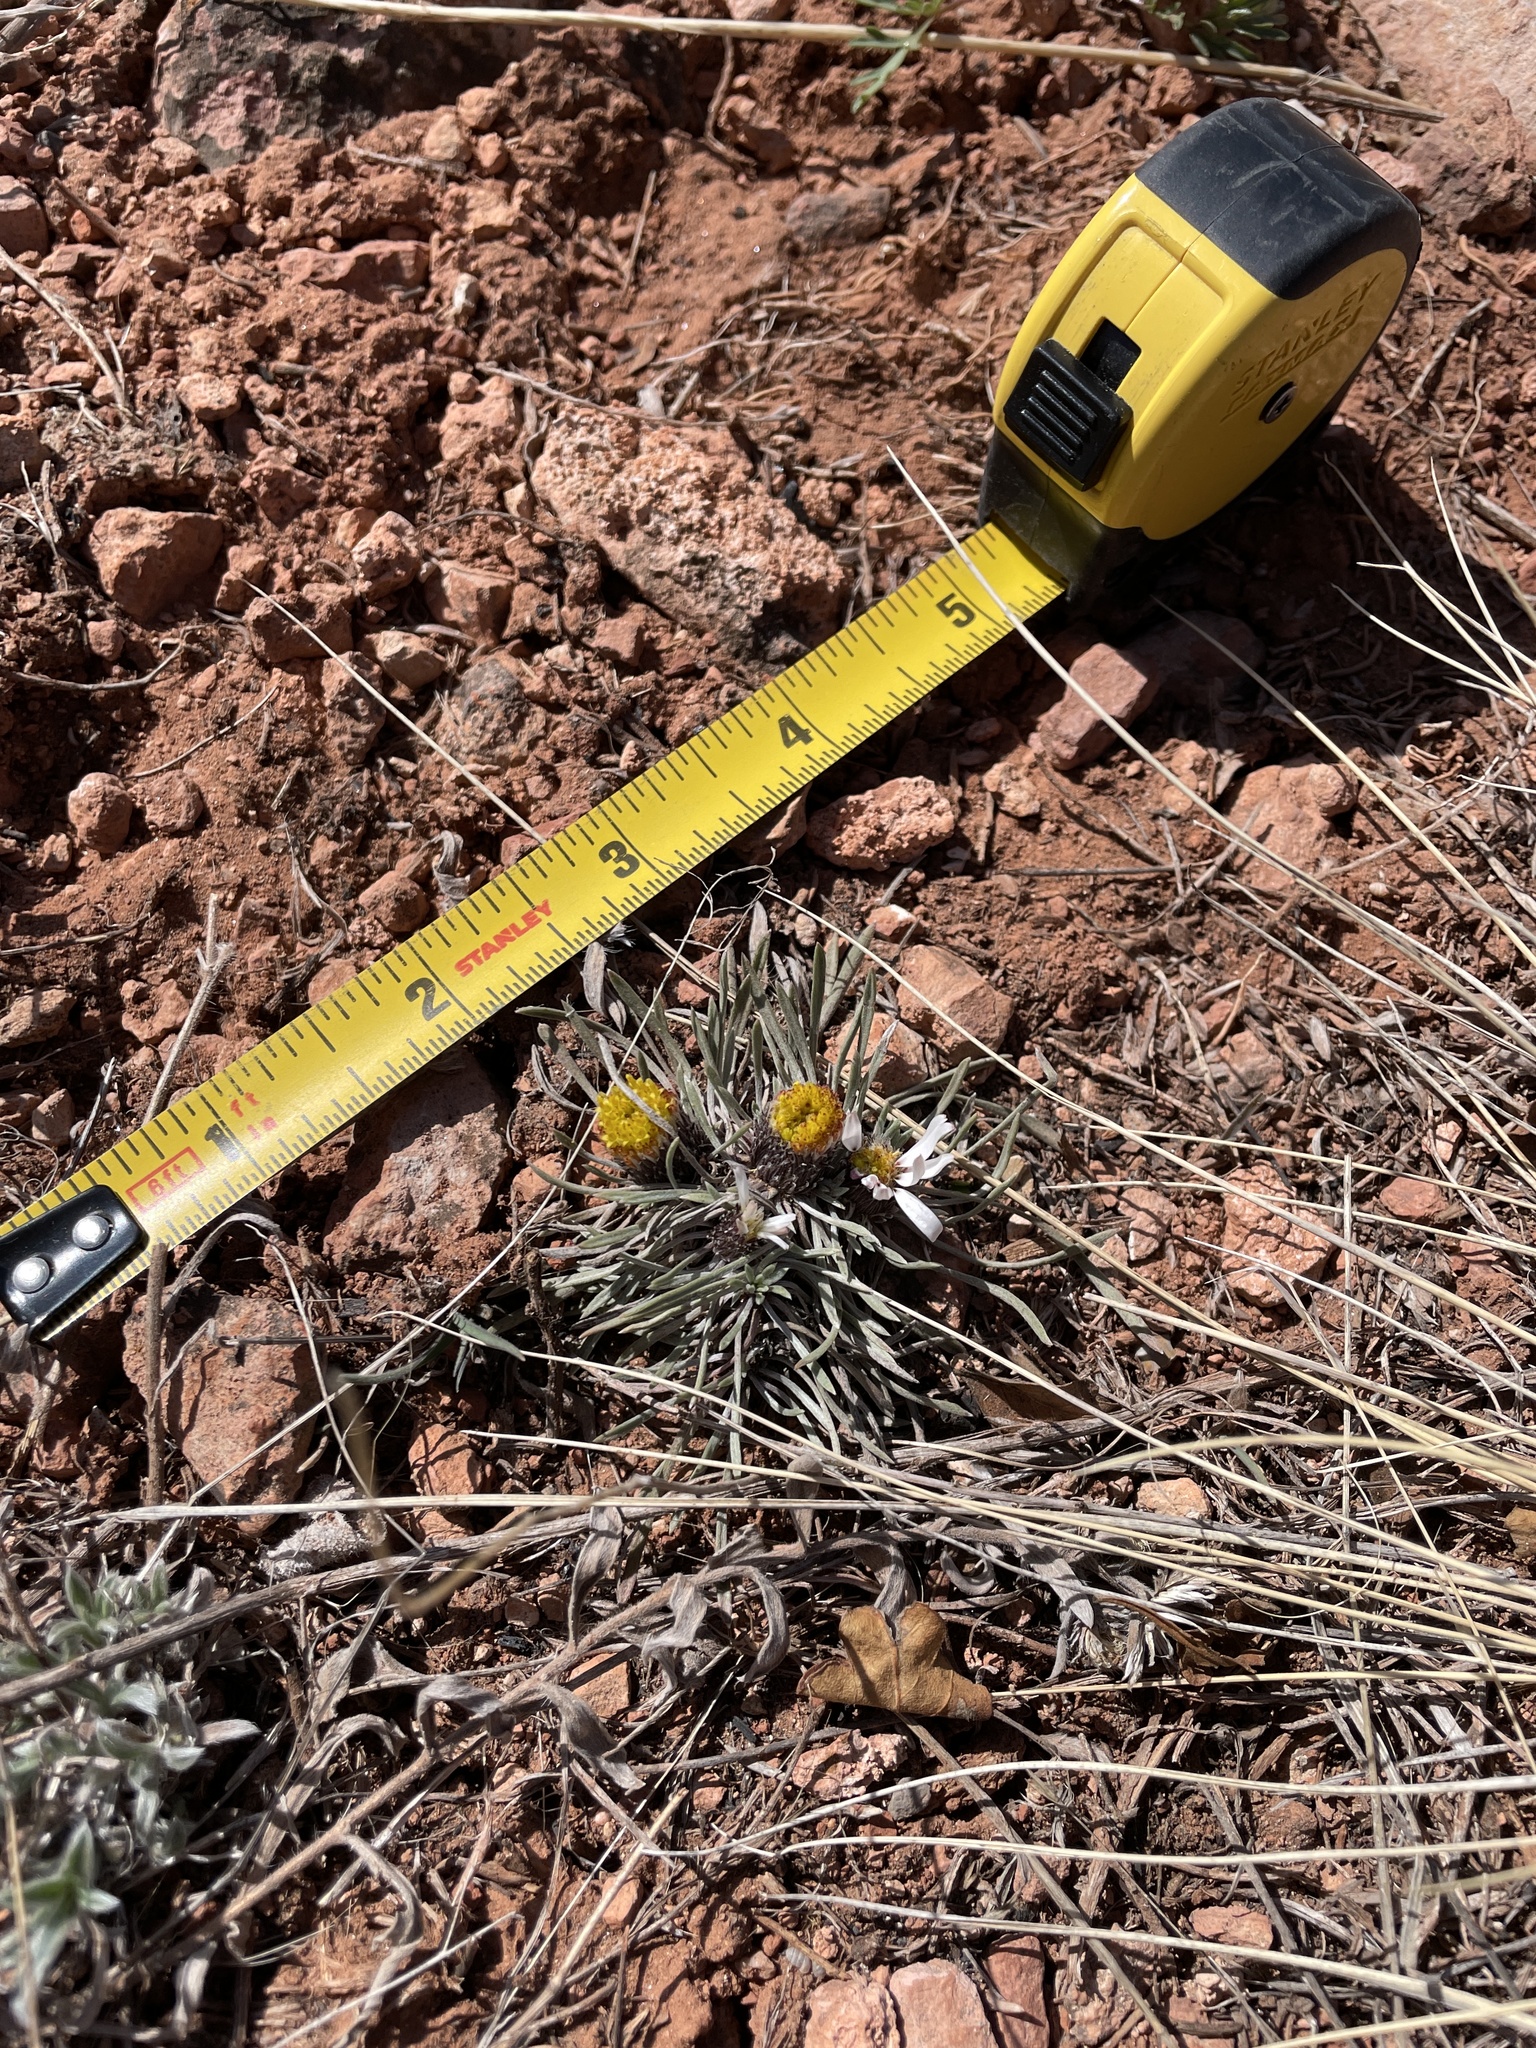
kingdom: Plantae
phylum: Tracheophyta
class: Magnoliopsida
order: Asterales
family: Asteraceae
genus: Townsendia
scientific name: Townsendia hookeri
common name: Hooker's townsend daisy
